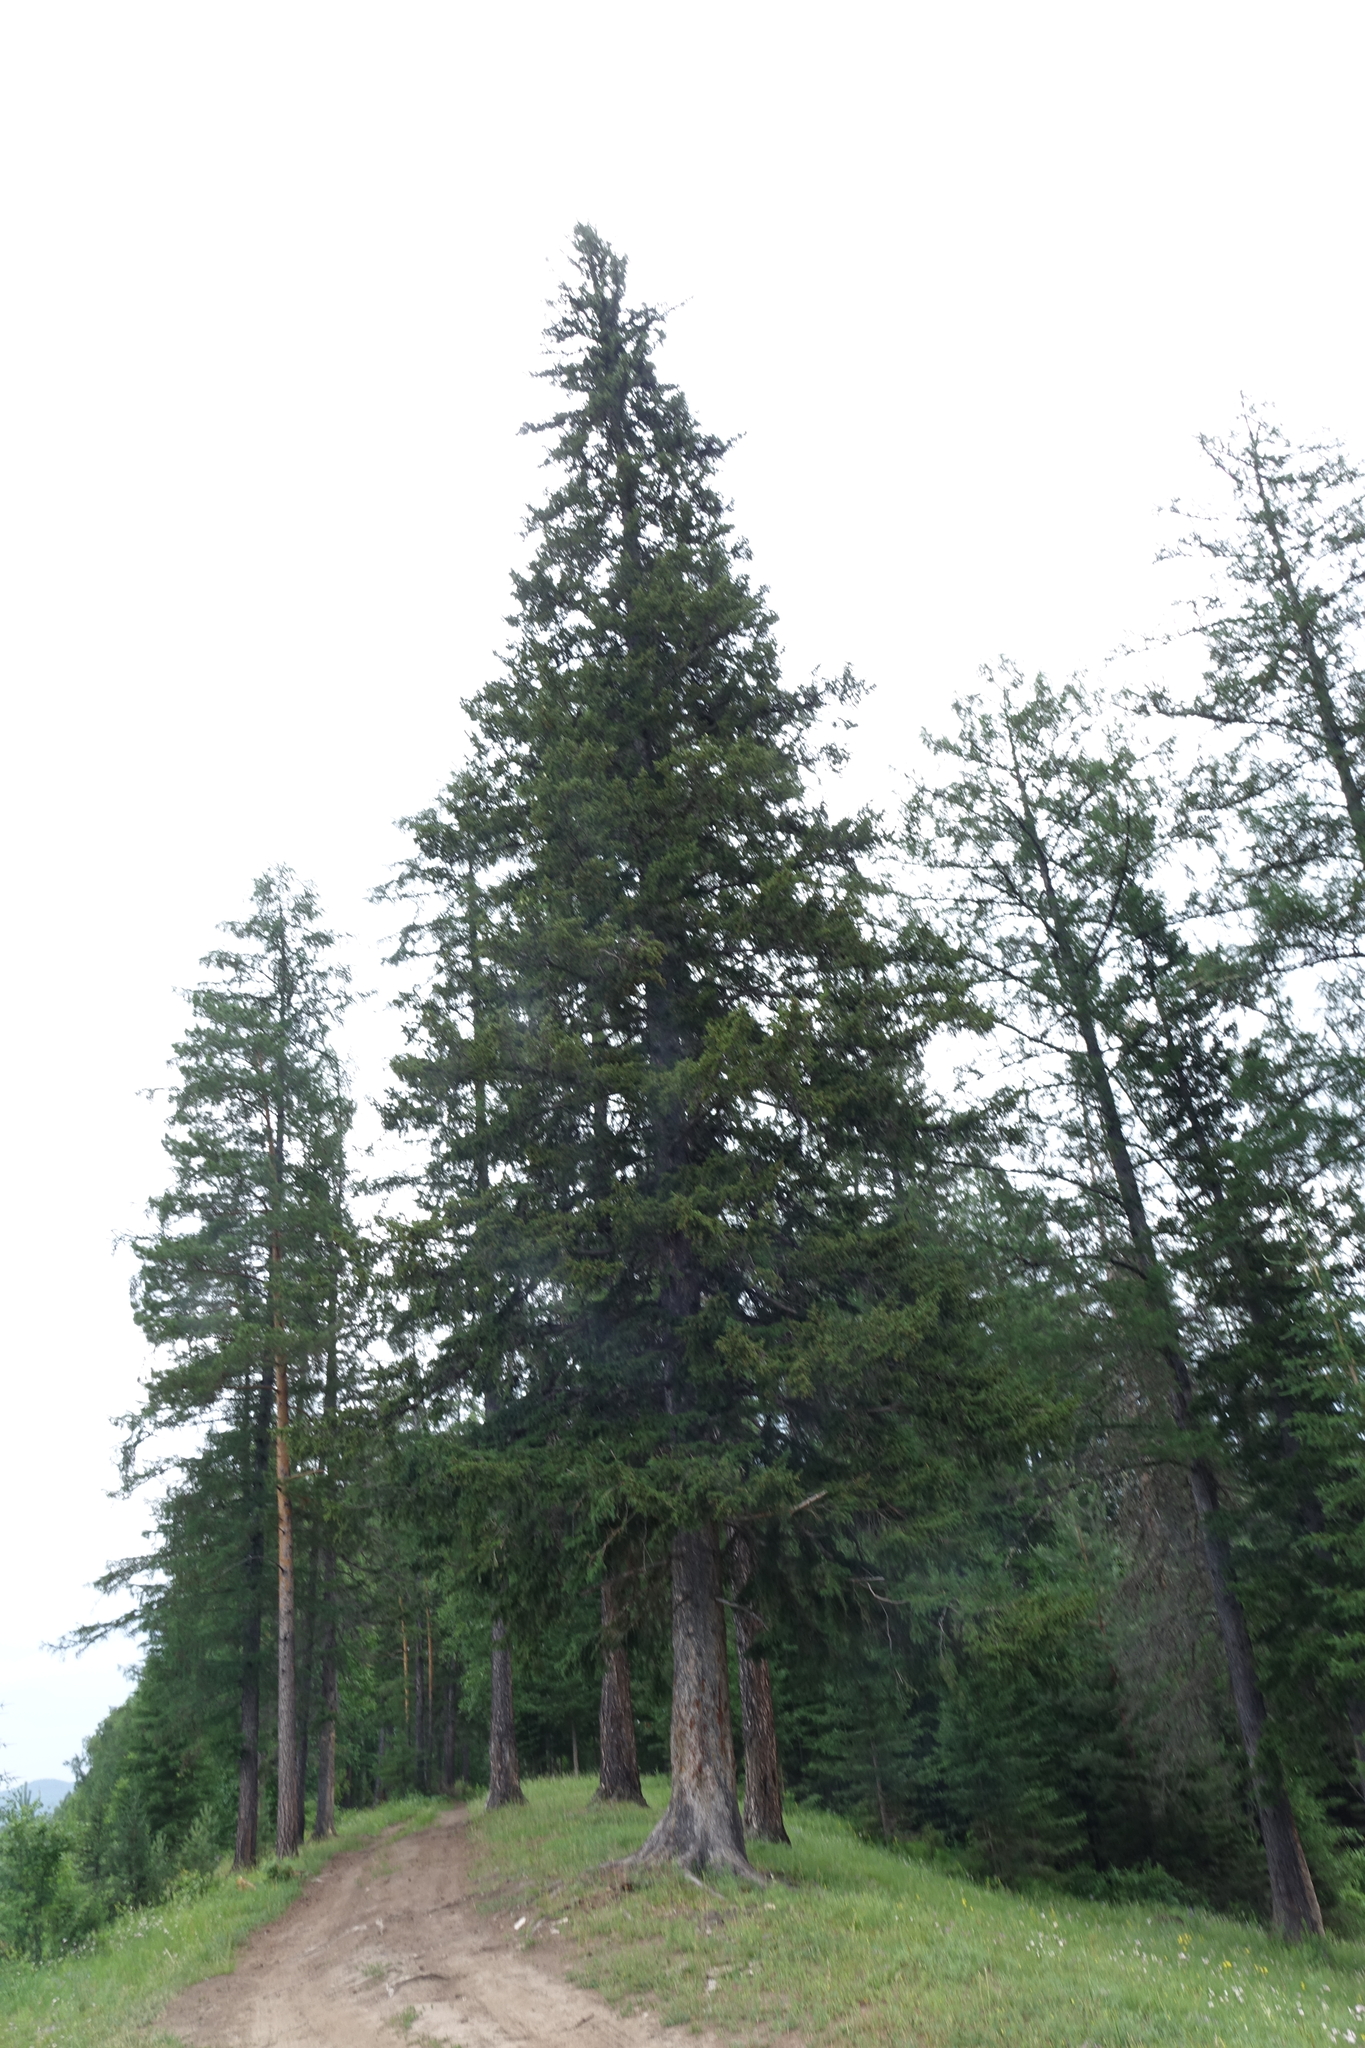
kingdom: Plantae
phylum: Tracheophyta
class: Pinopsida
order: Pinales
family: Pinaceae
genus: Picea
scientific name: Picea obovata
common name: Siberian spruce
